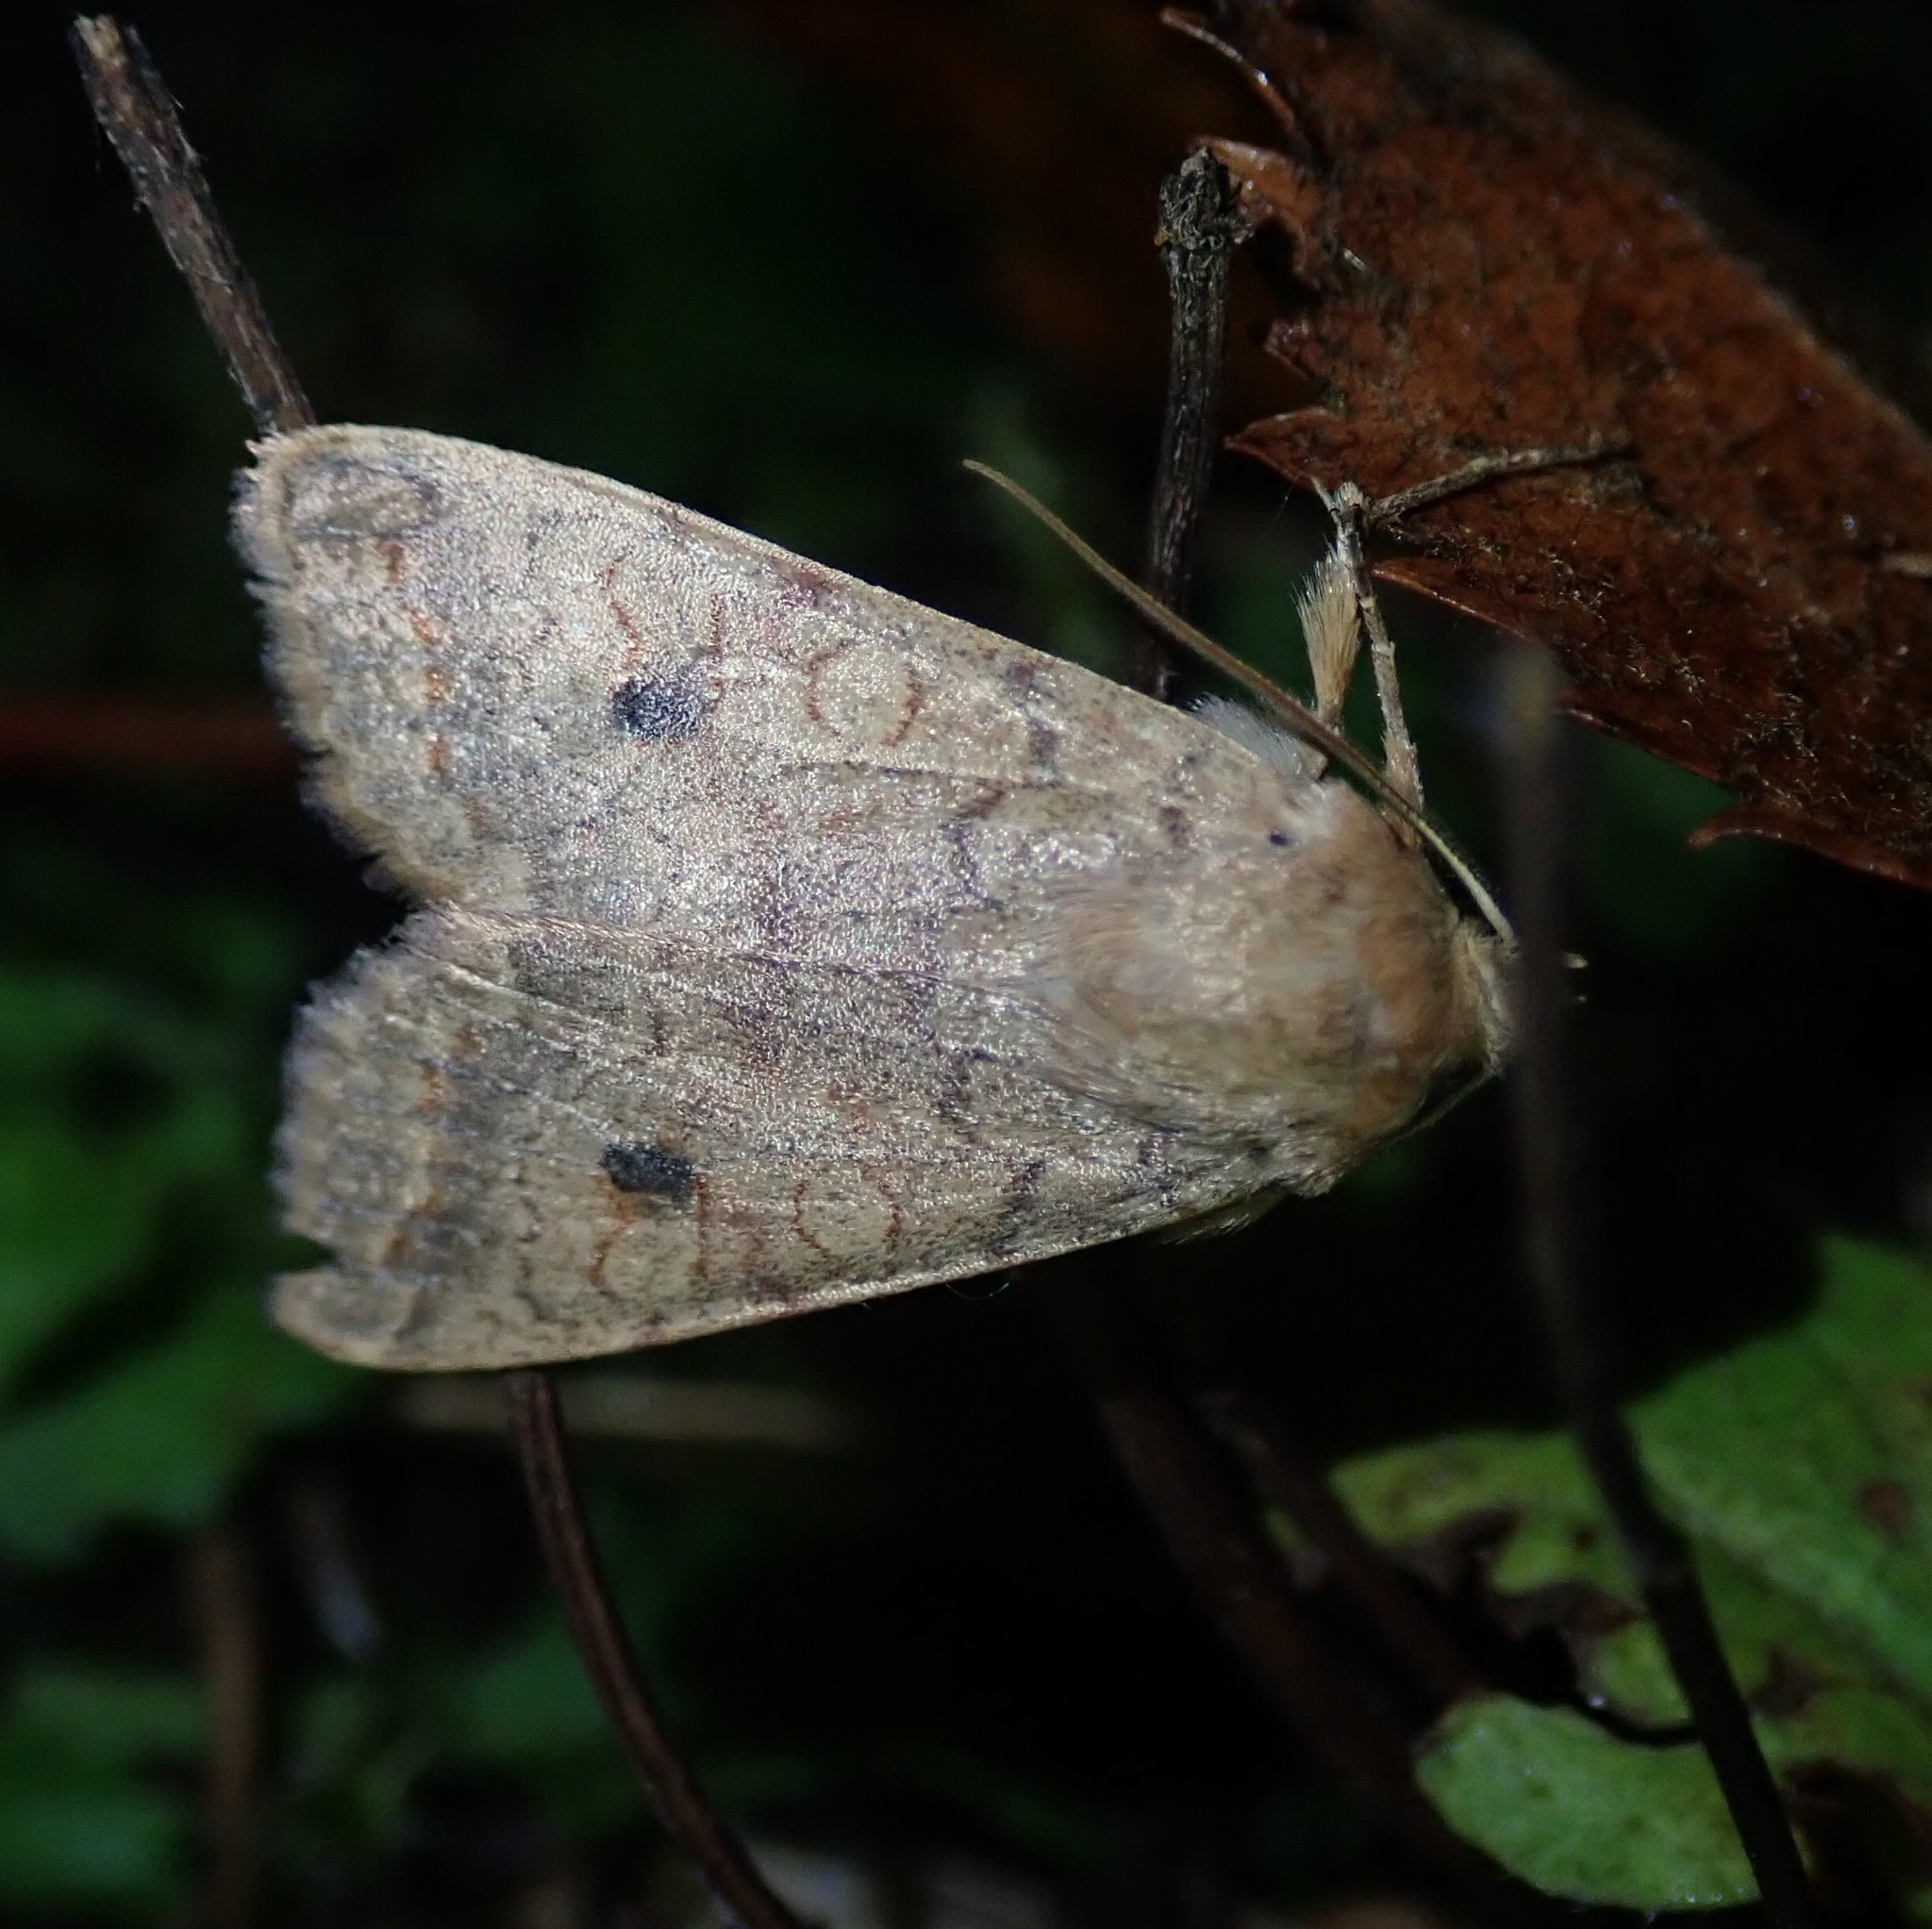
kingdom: Animalia
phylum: Arthropoda
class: Insecta
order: Lepidoptera
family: Noctuidae
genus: Sunira
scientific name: Sunira circellaris
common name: Brick
